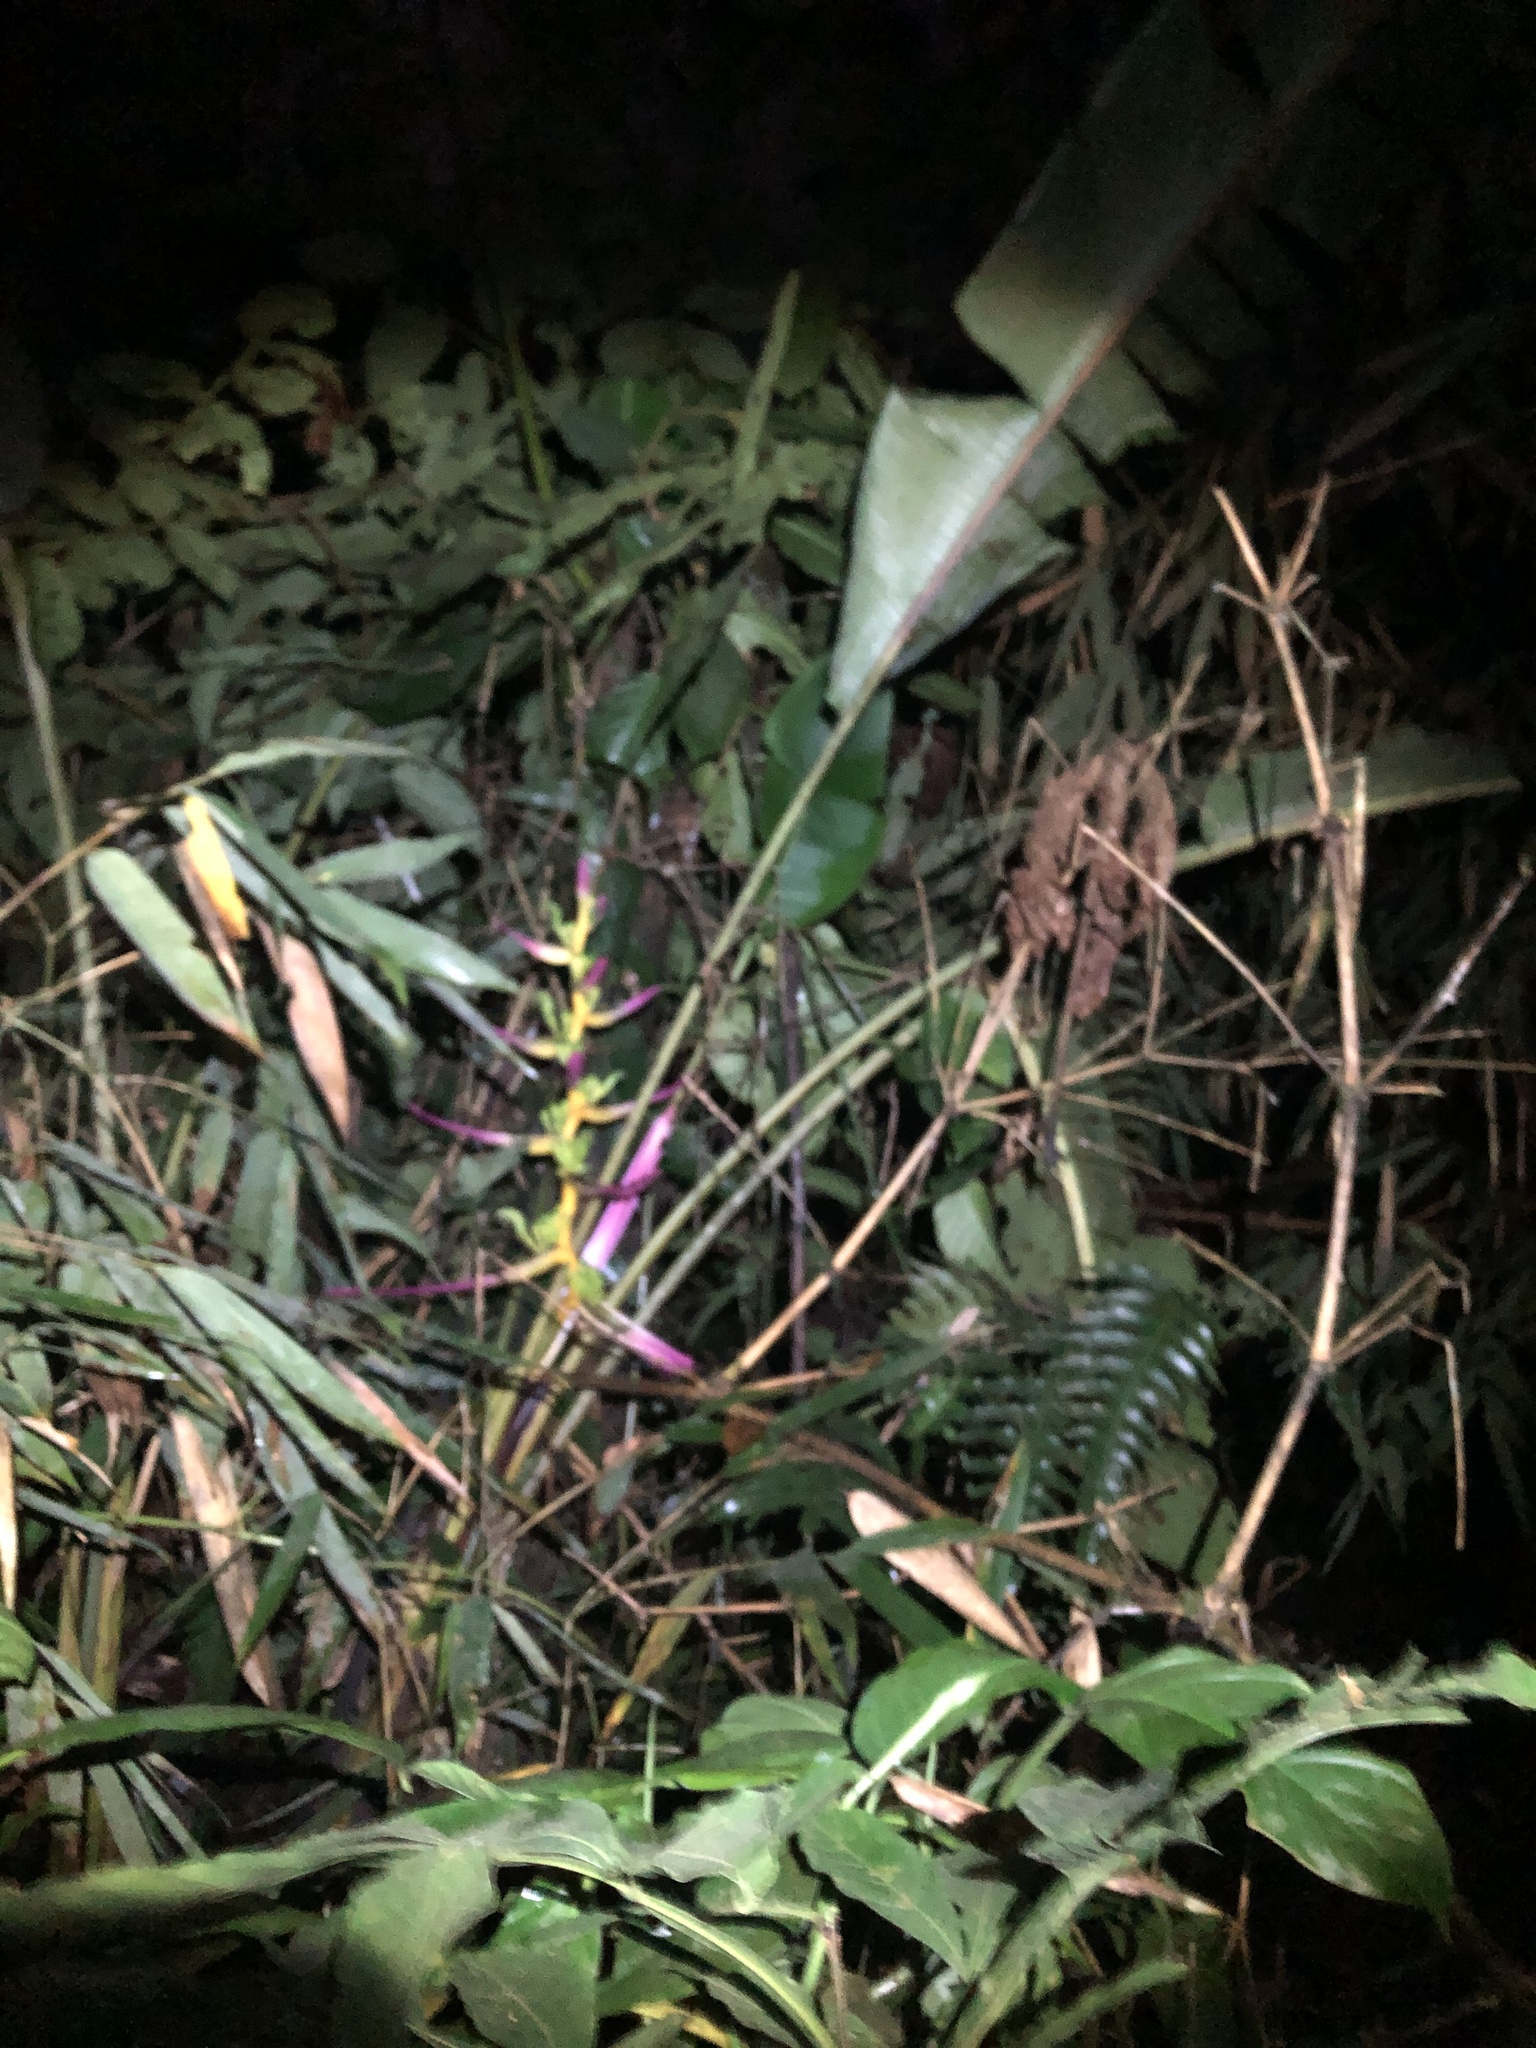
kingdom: Plantae
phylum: Tracheophyta
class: Liliopsida
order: Zingiberales
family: Heliconiaceae
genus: Heliconia
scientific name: Heliconia aemygdiana
